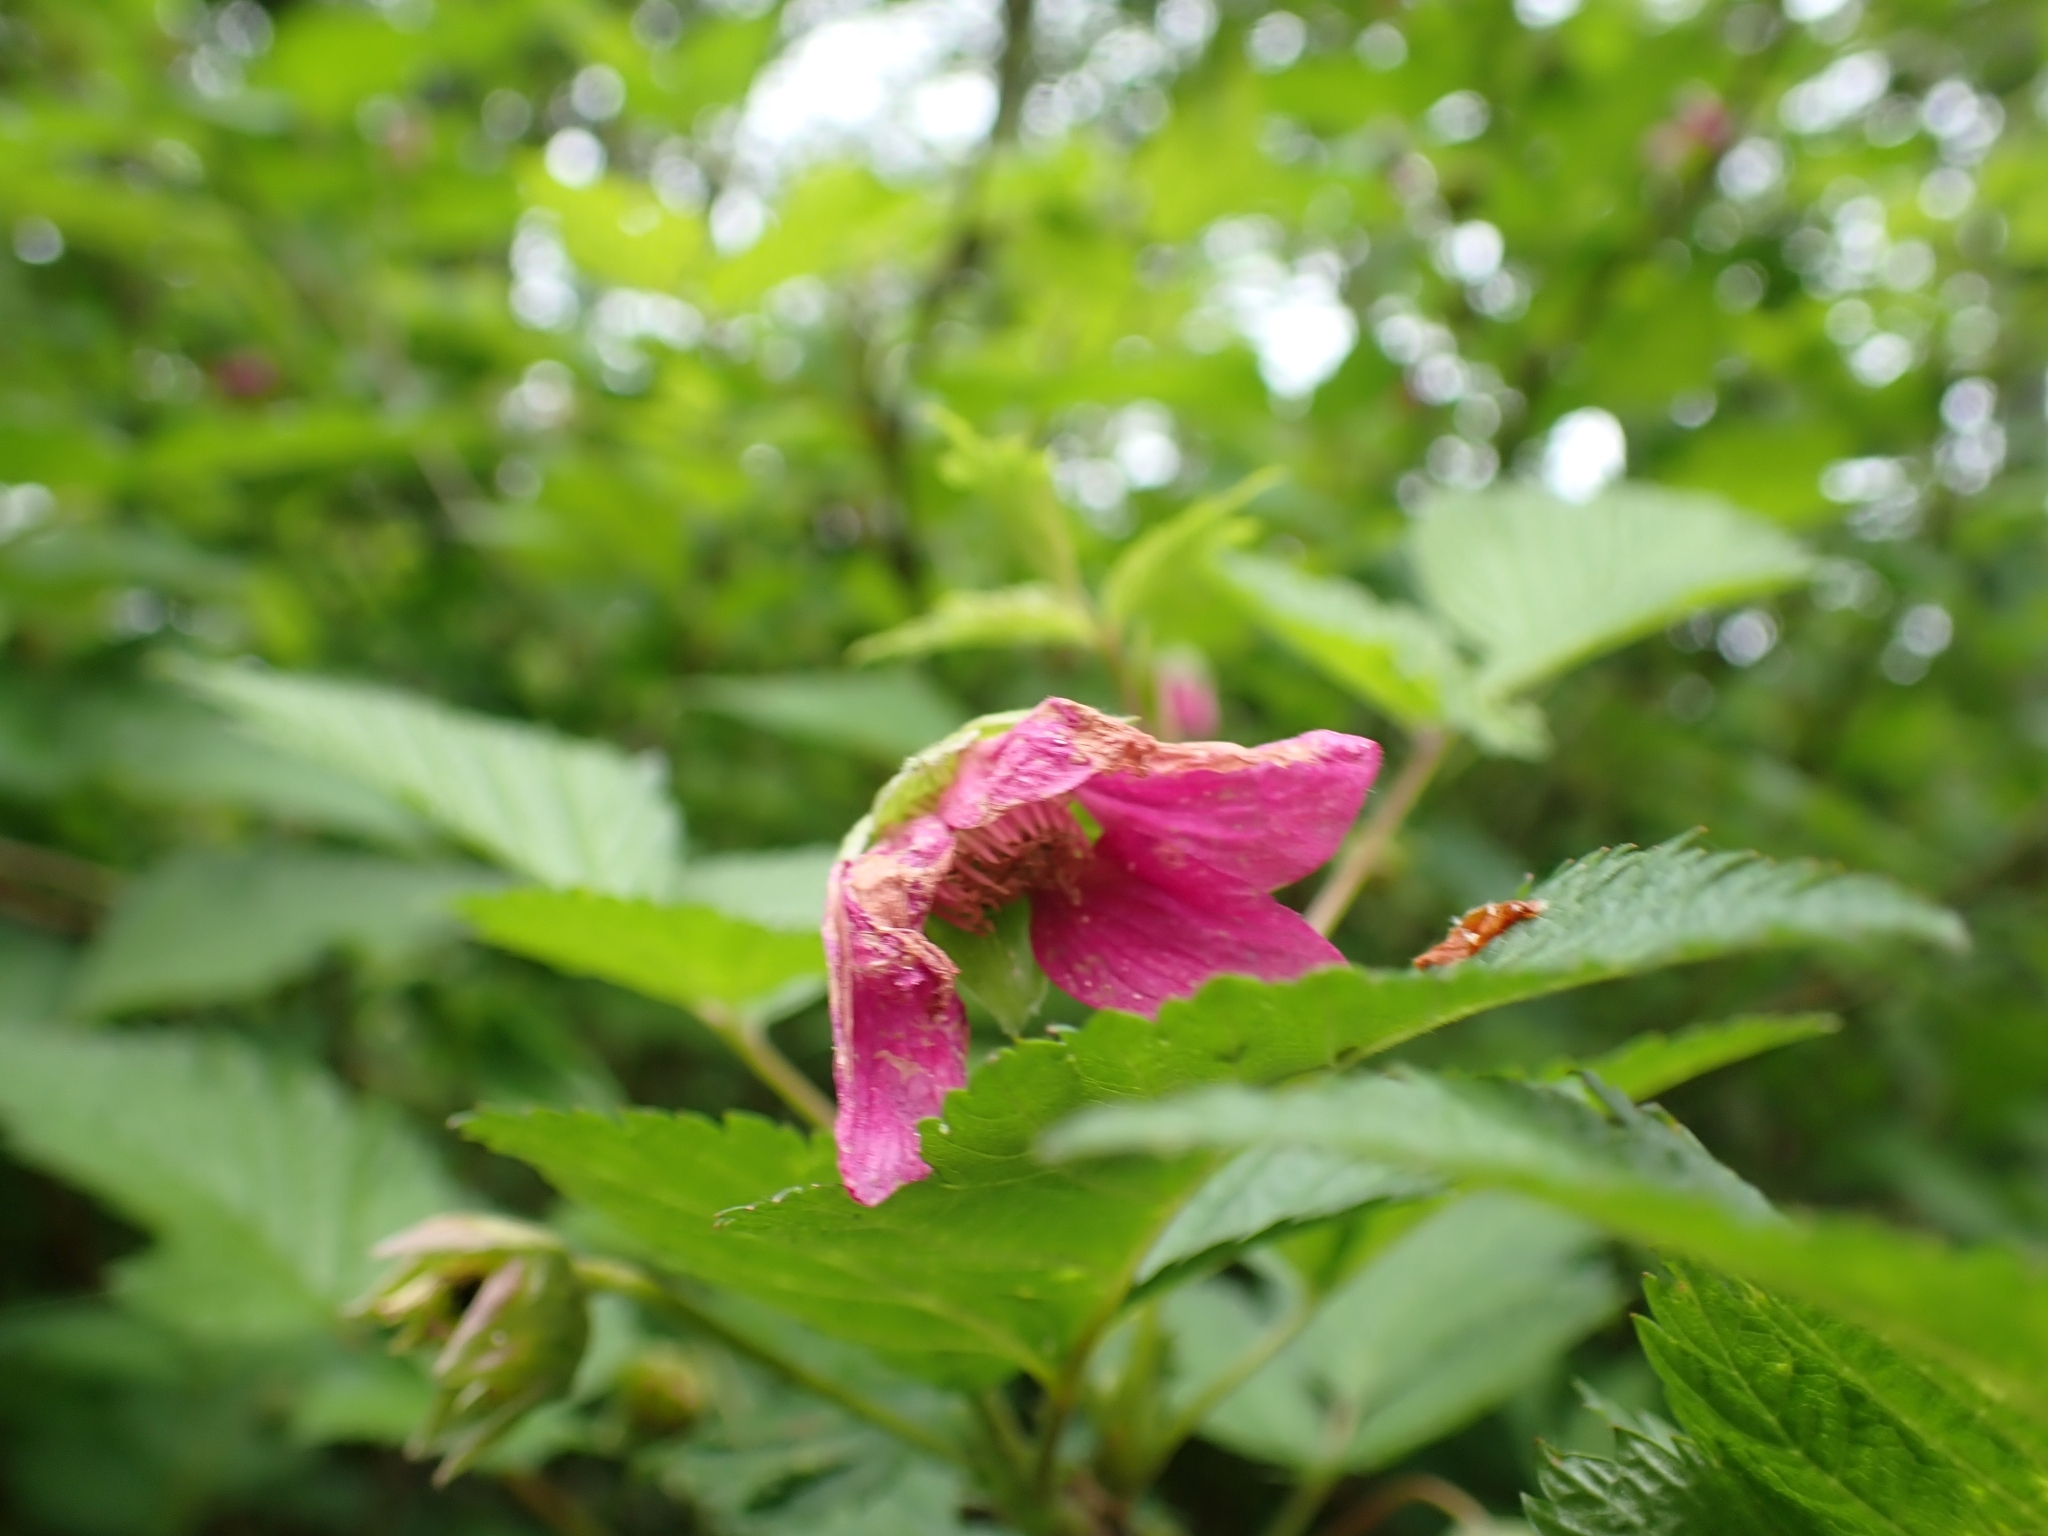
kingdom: Plantae
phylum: Tracheophyta
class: Magnoliopsida
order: Rosales
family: Rosaceae
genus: Rubus
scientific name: Rubus spectabilis
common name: Salmonberry
